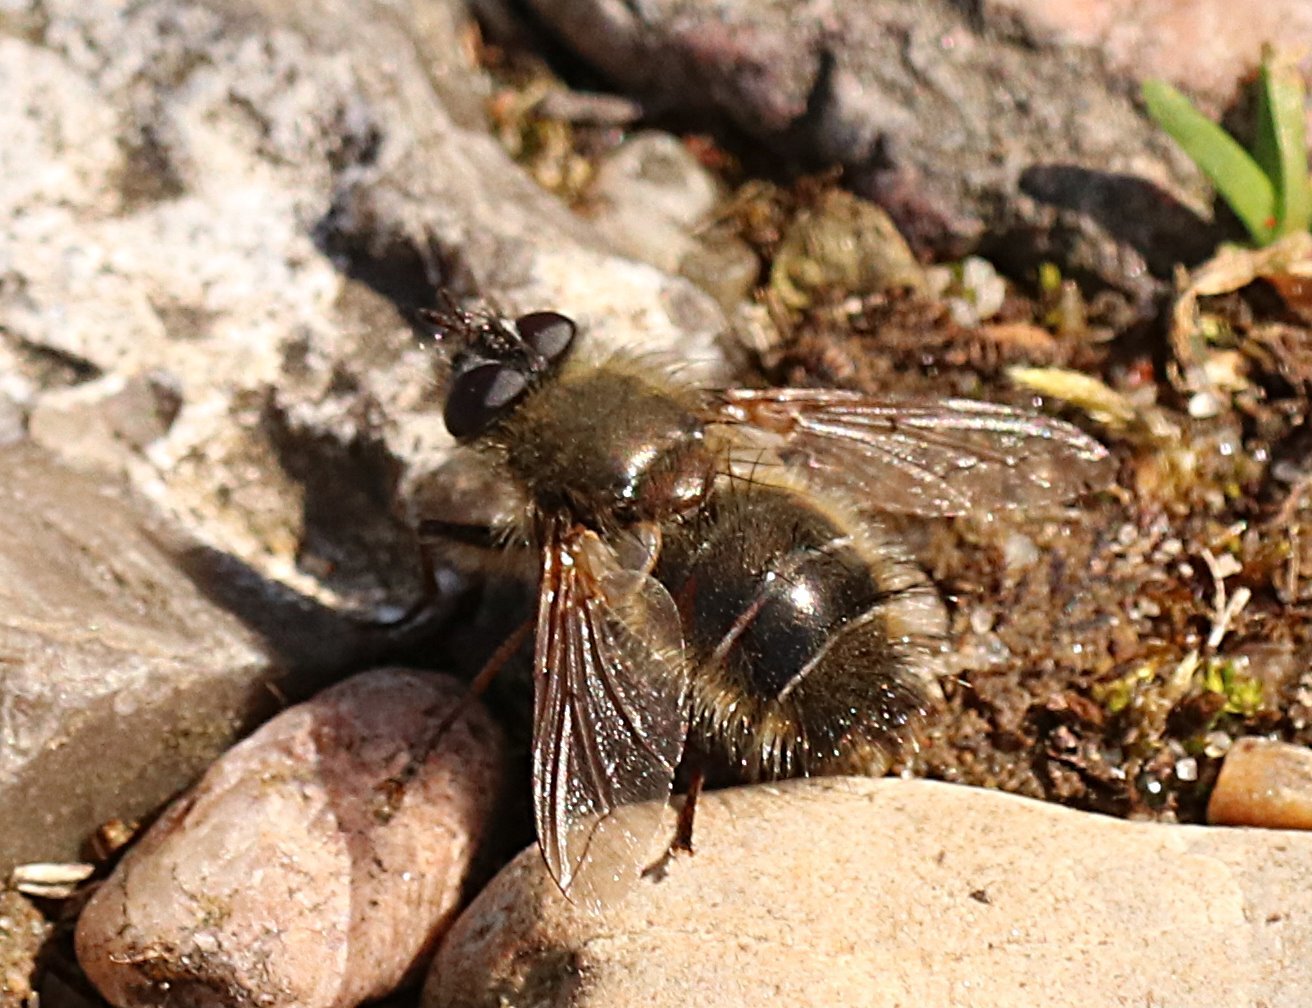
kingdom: Animalia
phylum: Arthropoda
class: Insecta
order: Diptera
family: Tachinidae
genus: Tachina
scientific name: Tachina ursina
